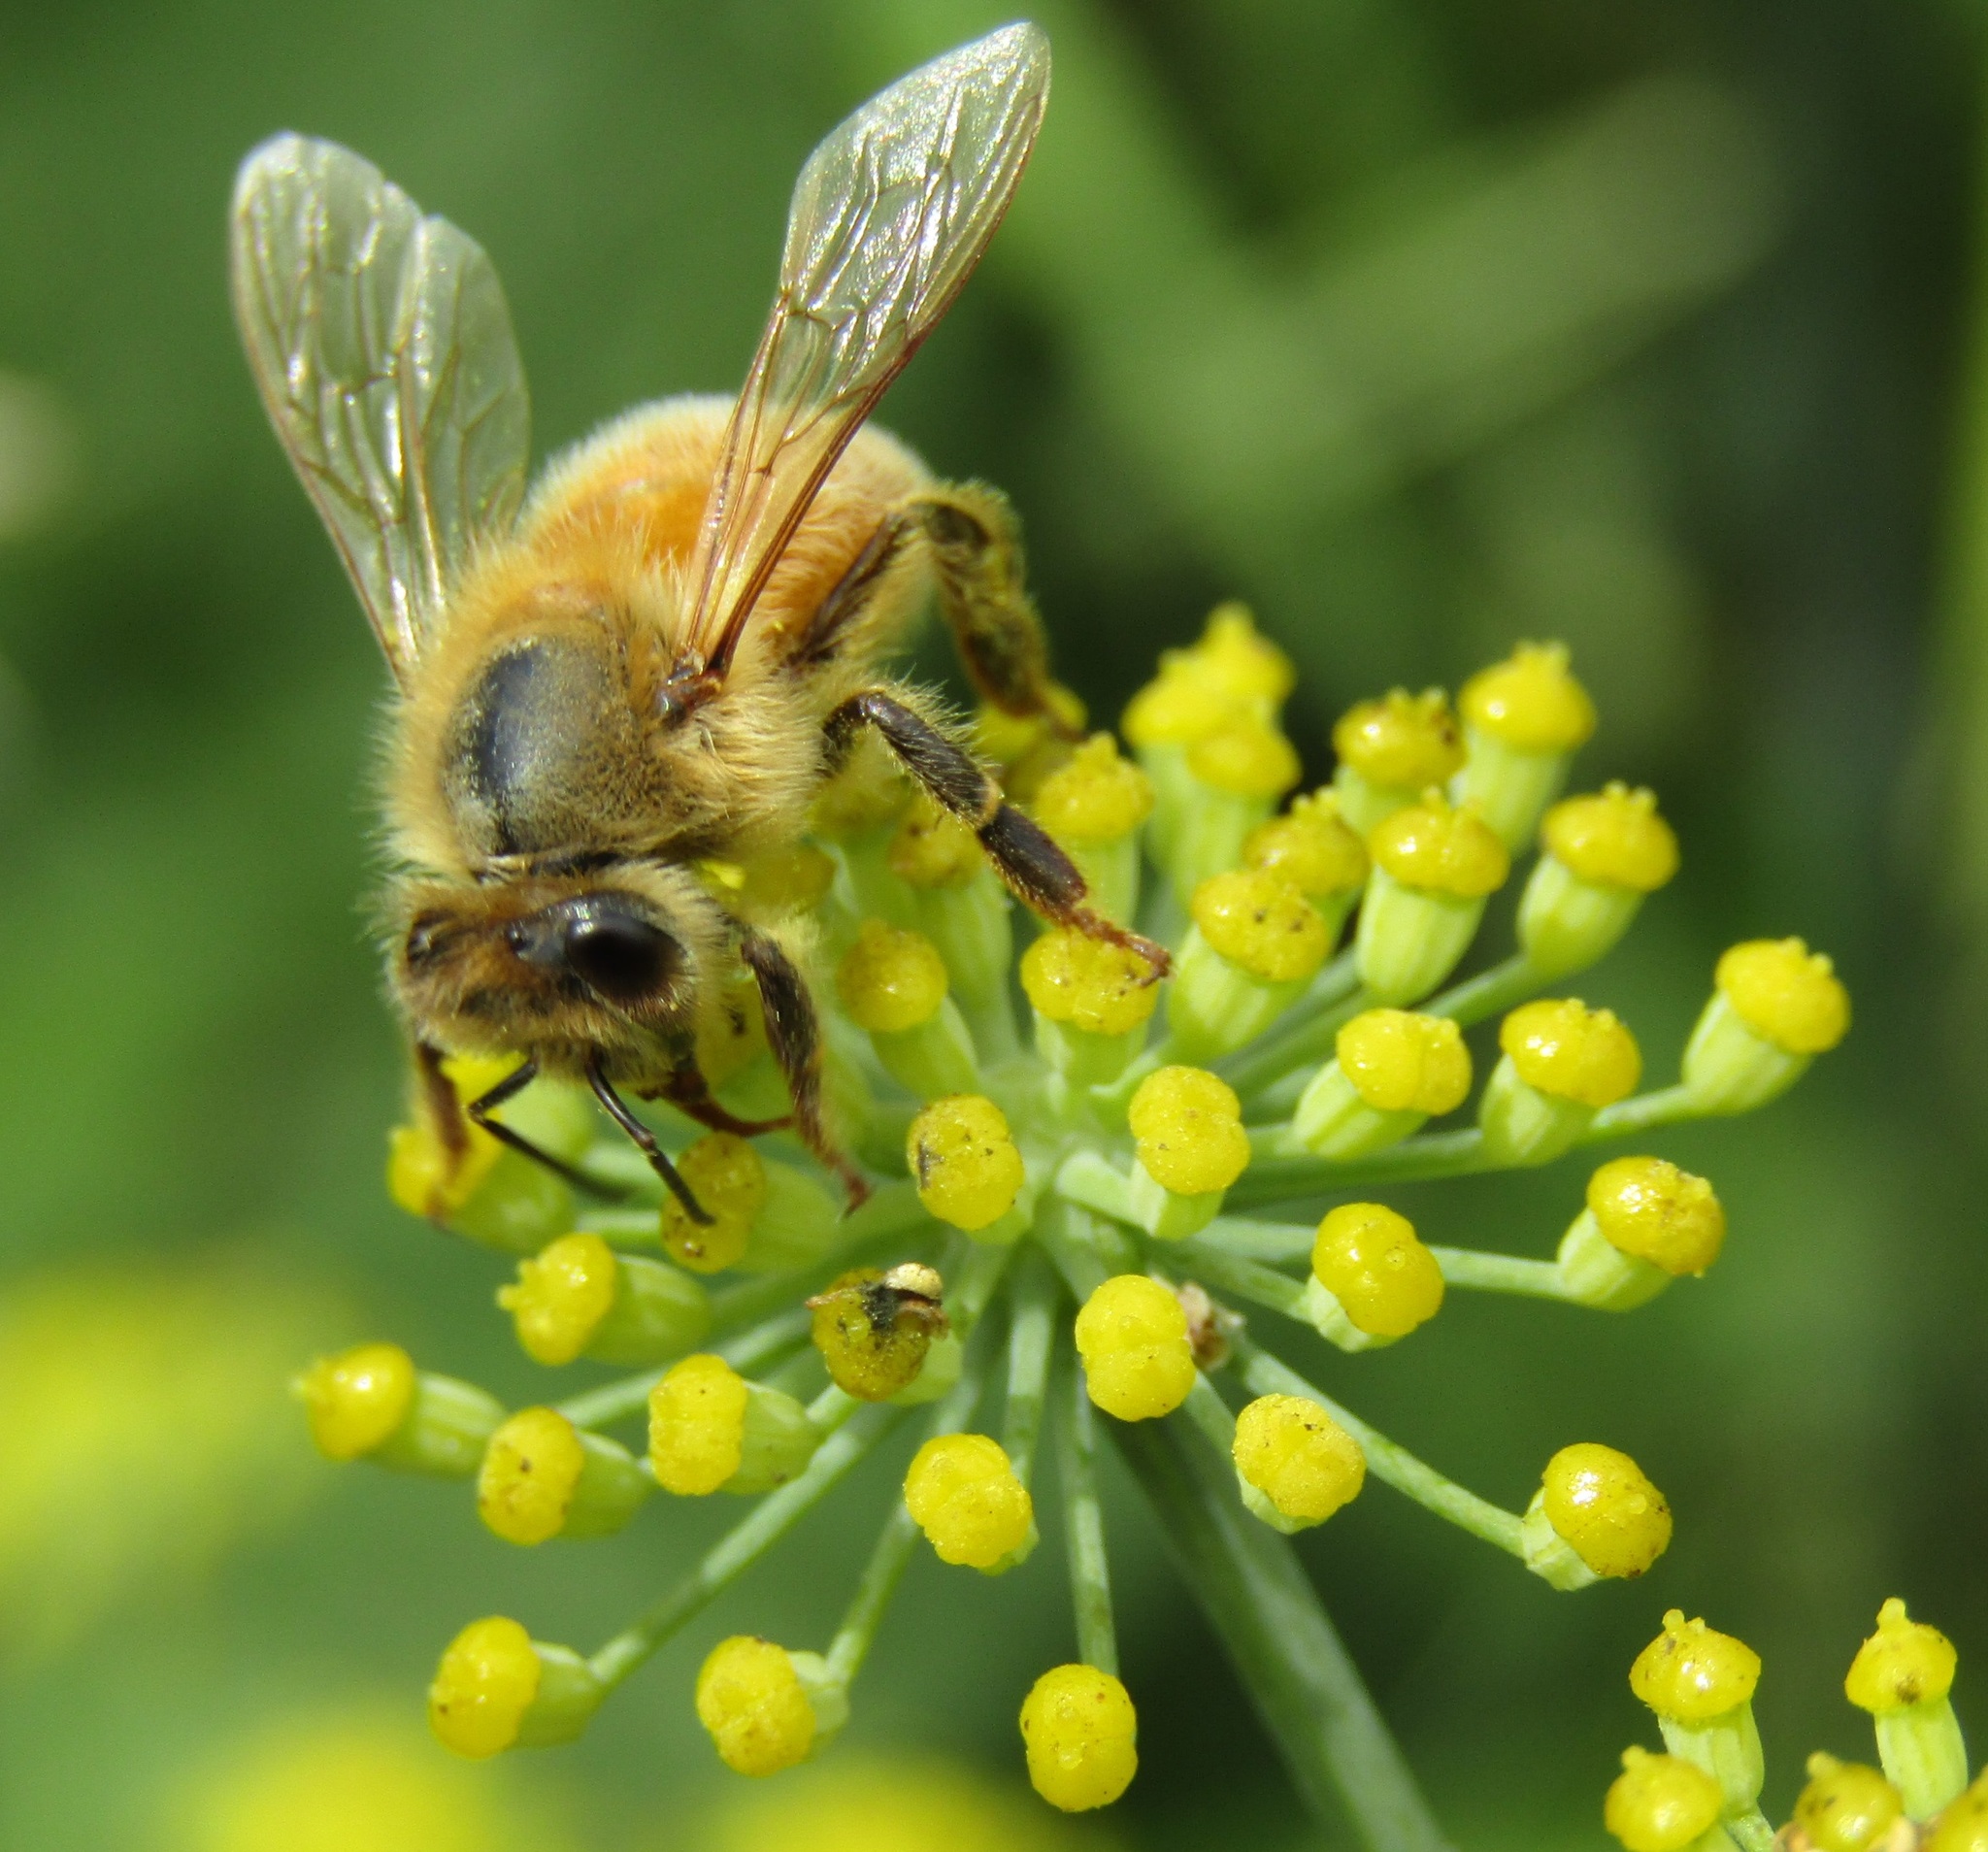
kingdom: Animalia
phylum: Arthropoda
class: Insecta
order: Hymenoptera
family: Apidae
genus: Apis
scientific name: Apis mellifera
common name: Honey bee
